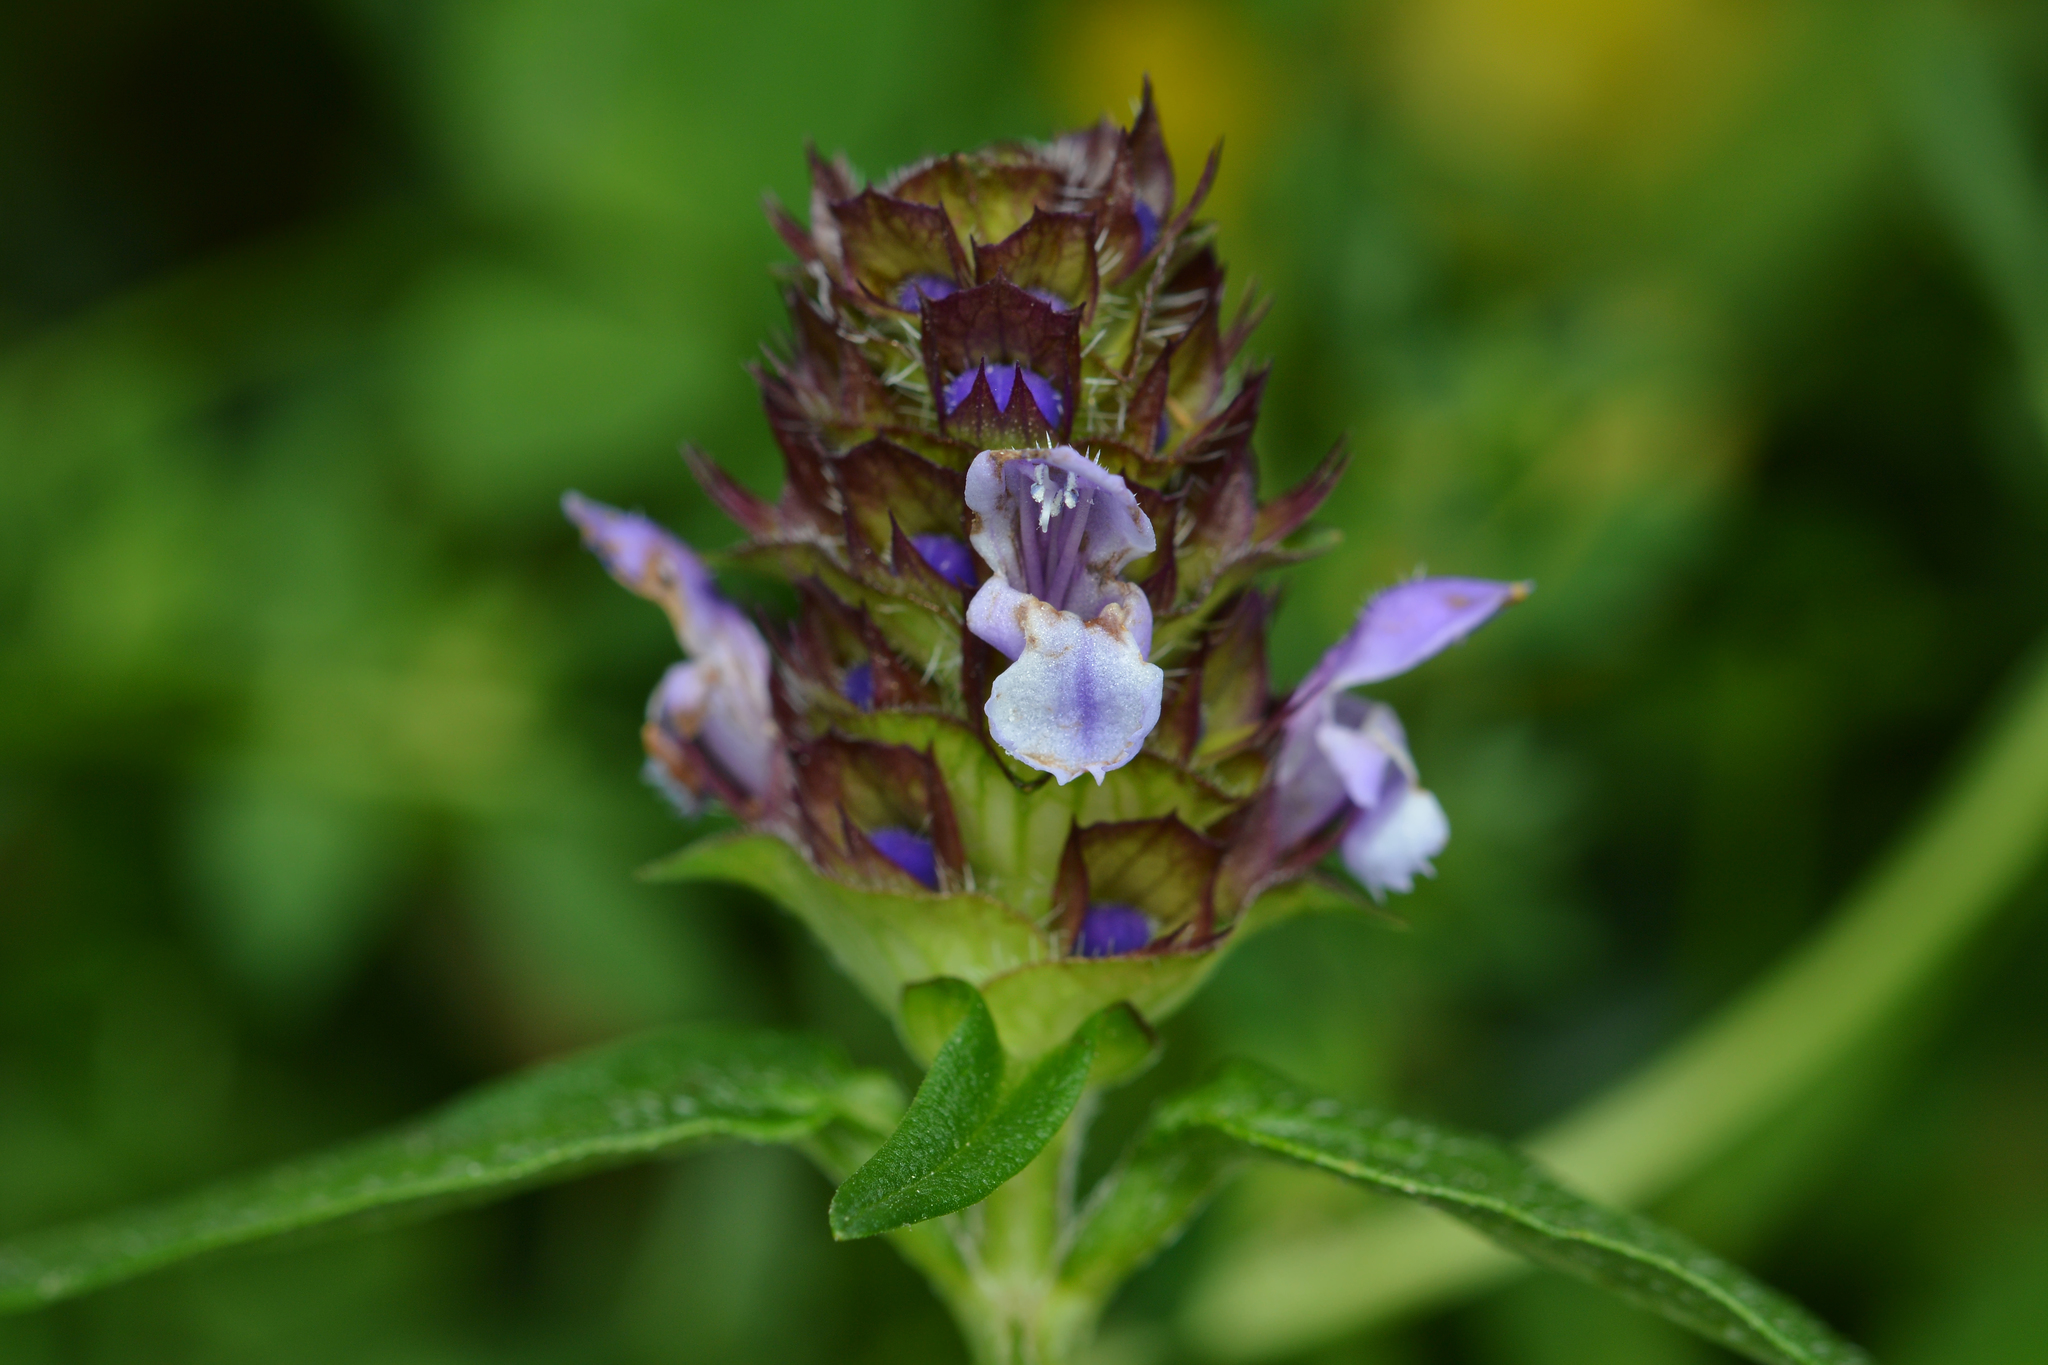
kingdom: Plantae
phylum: Tracheophyta
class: Magnoliopsida
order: Lamiales
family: Lamiaceae
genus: Prunella
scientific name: Prunella vulgaris
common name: Heal-all
